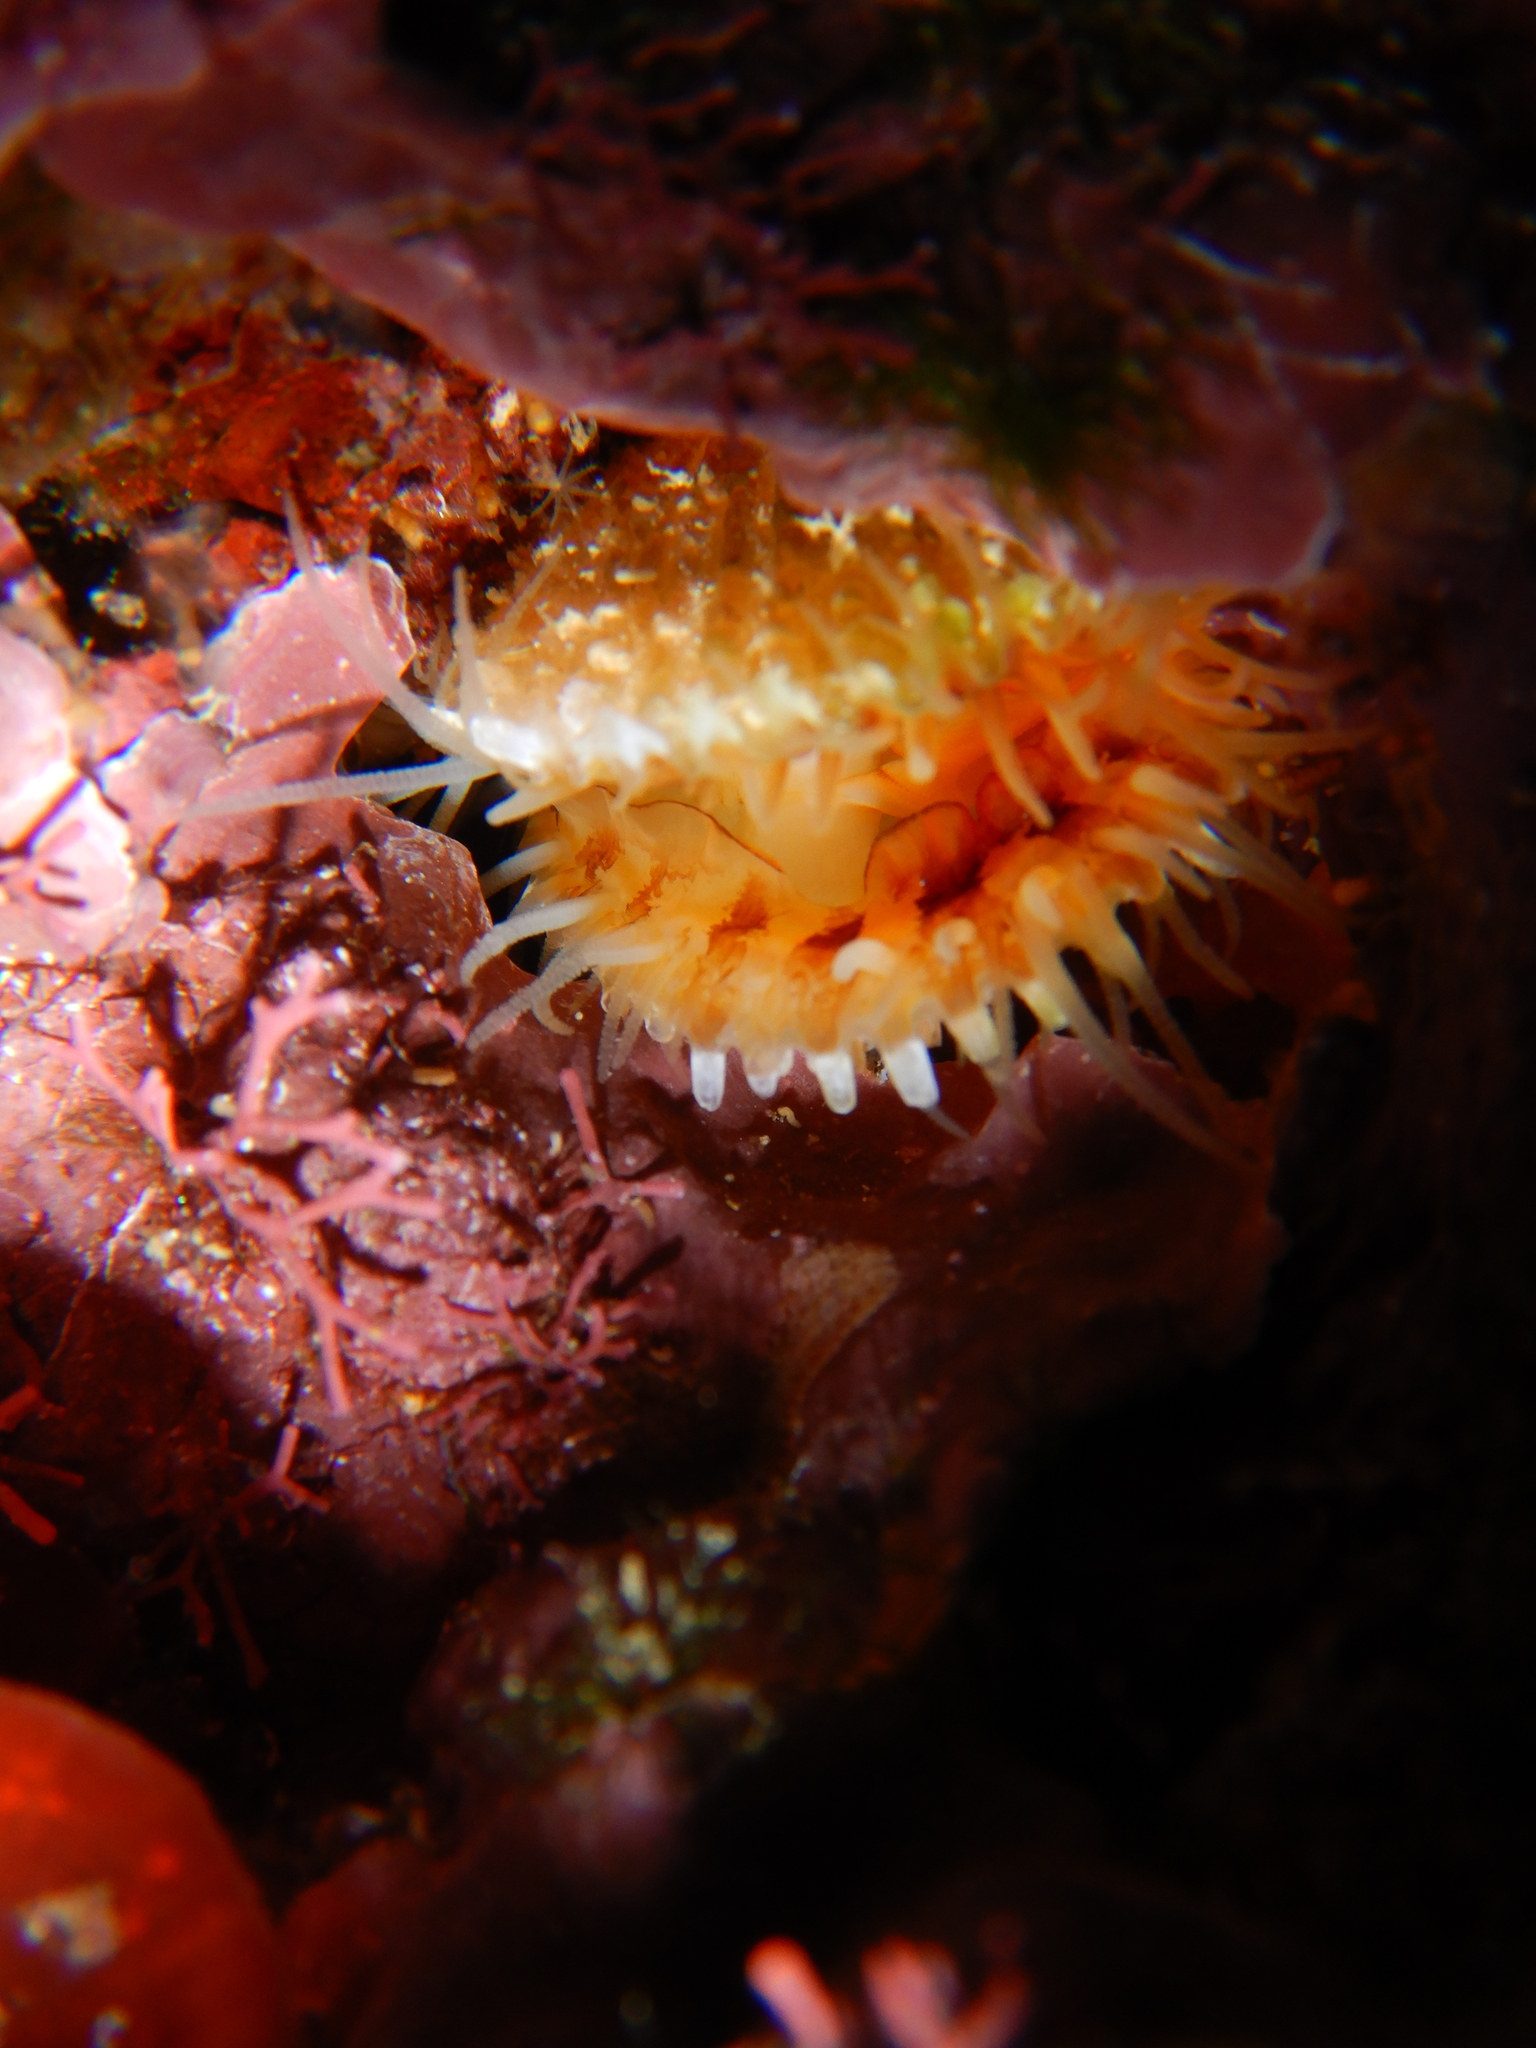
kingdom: Animalia
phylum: Mollusca
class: Bivalvia
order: Limida
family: Limidae
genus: Lima
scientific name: Lima lima
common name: Frilled file shell
